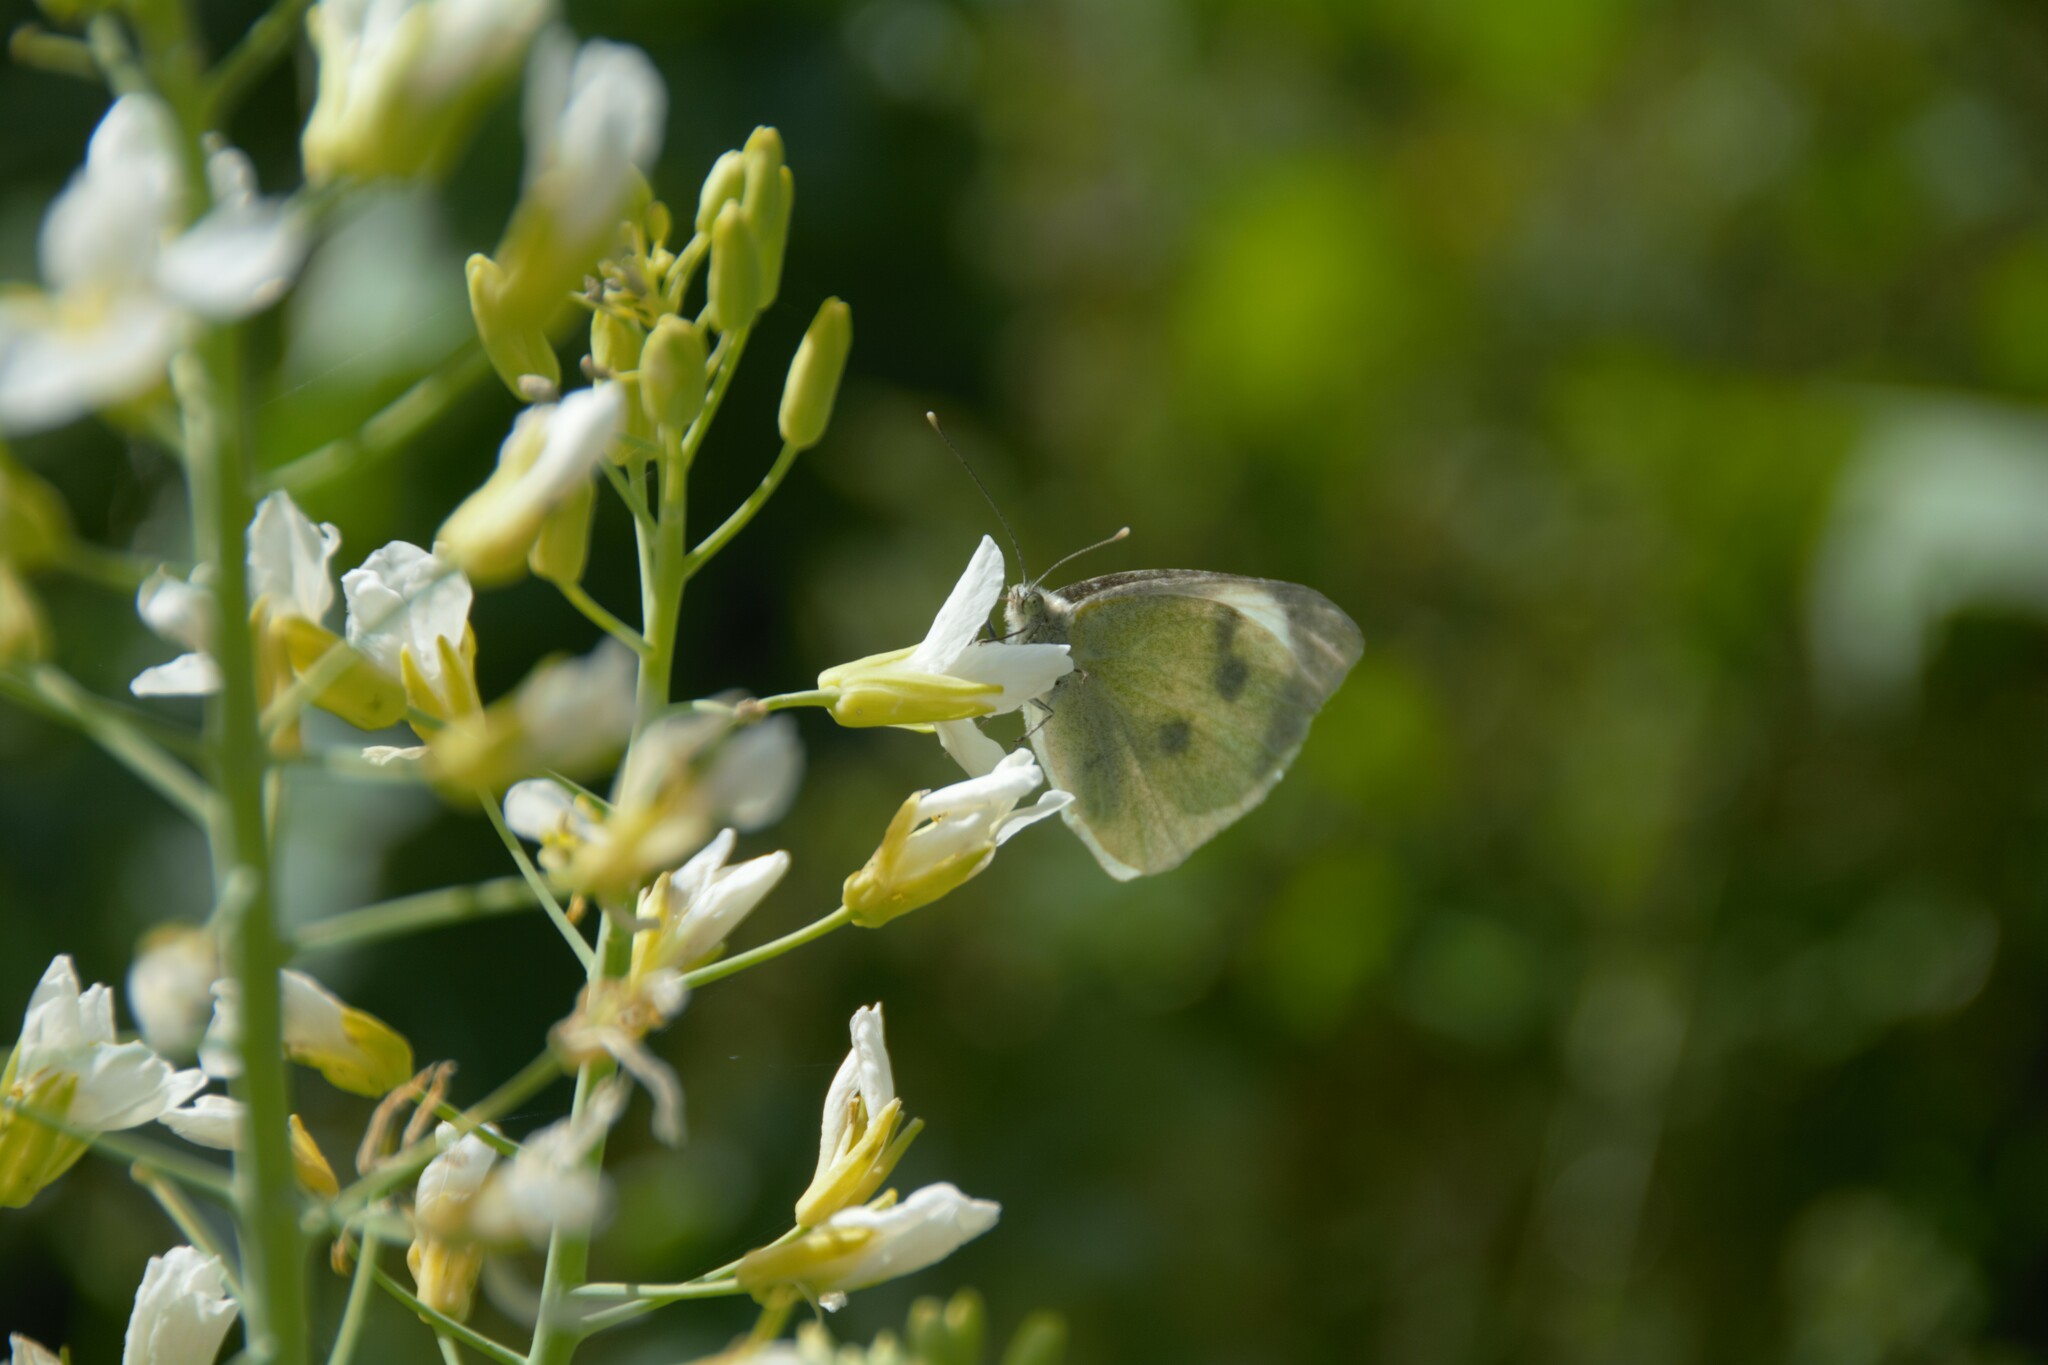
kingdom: Animalia
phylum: Arthropoda
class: Insecta
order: Lepidoptera
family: Pieridae
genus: Pieris
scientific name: Pieris brassicae
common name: Large white
